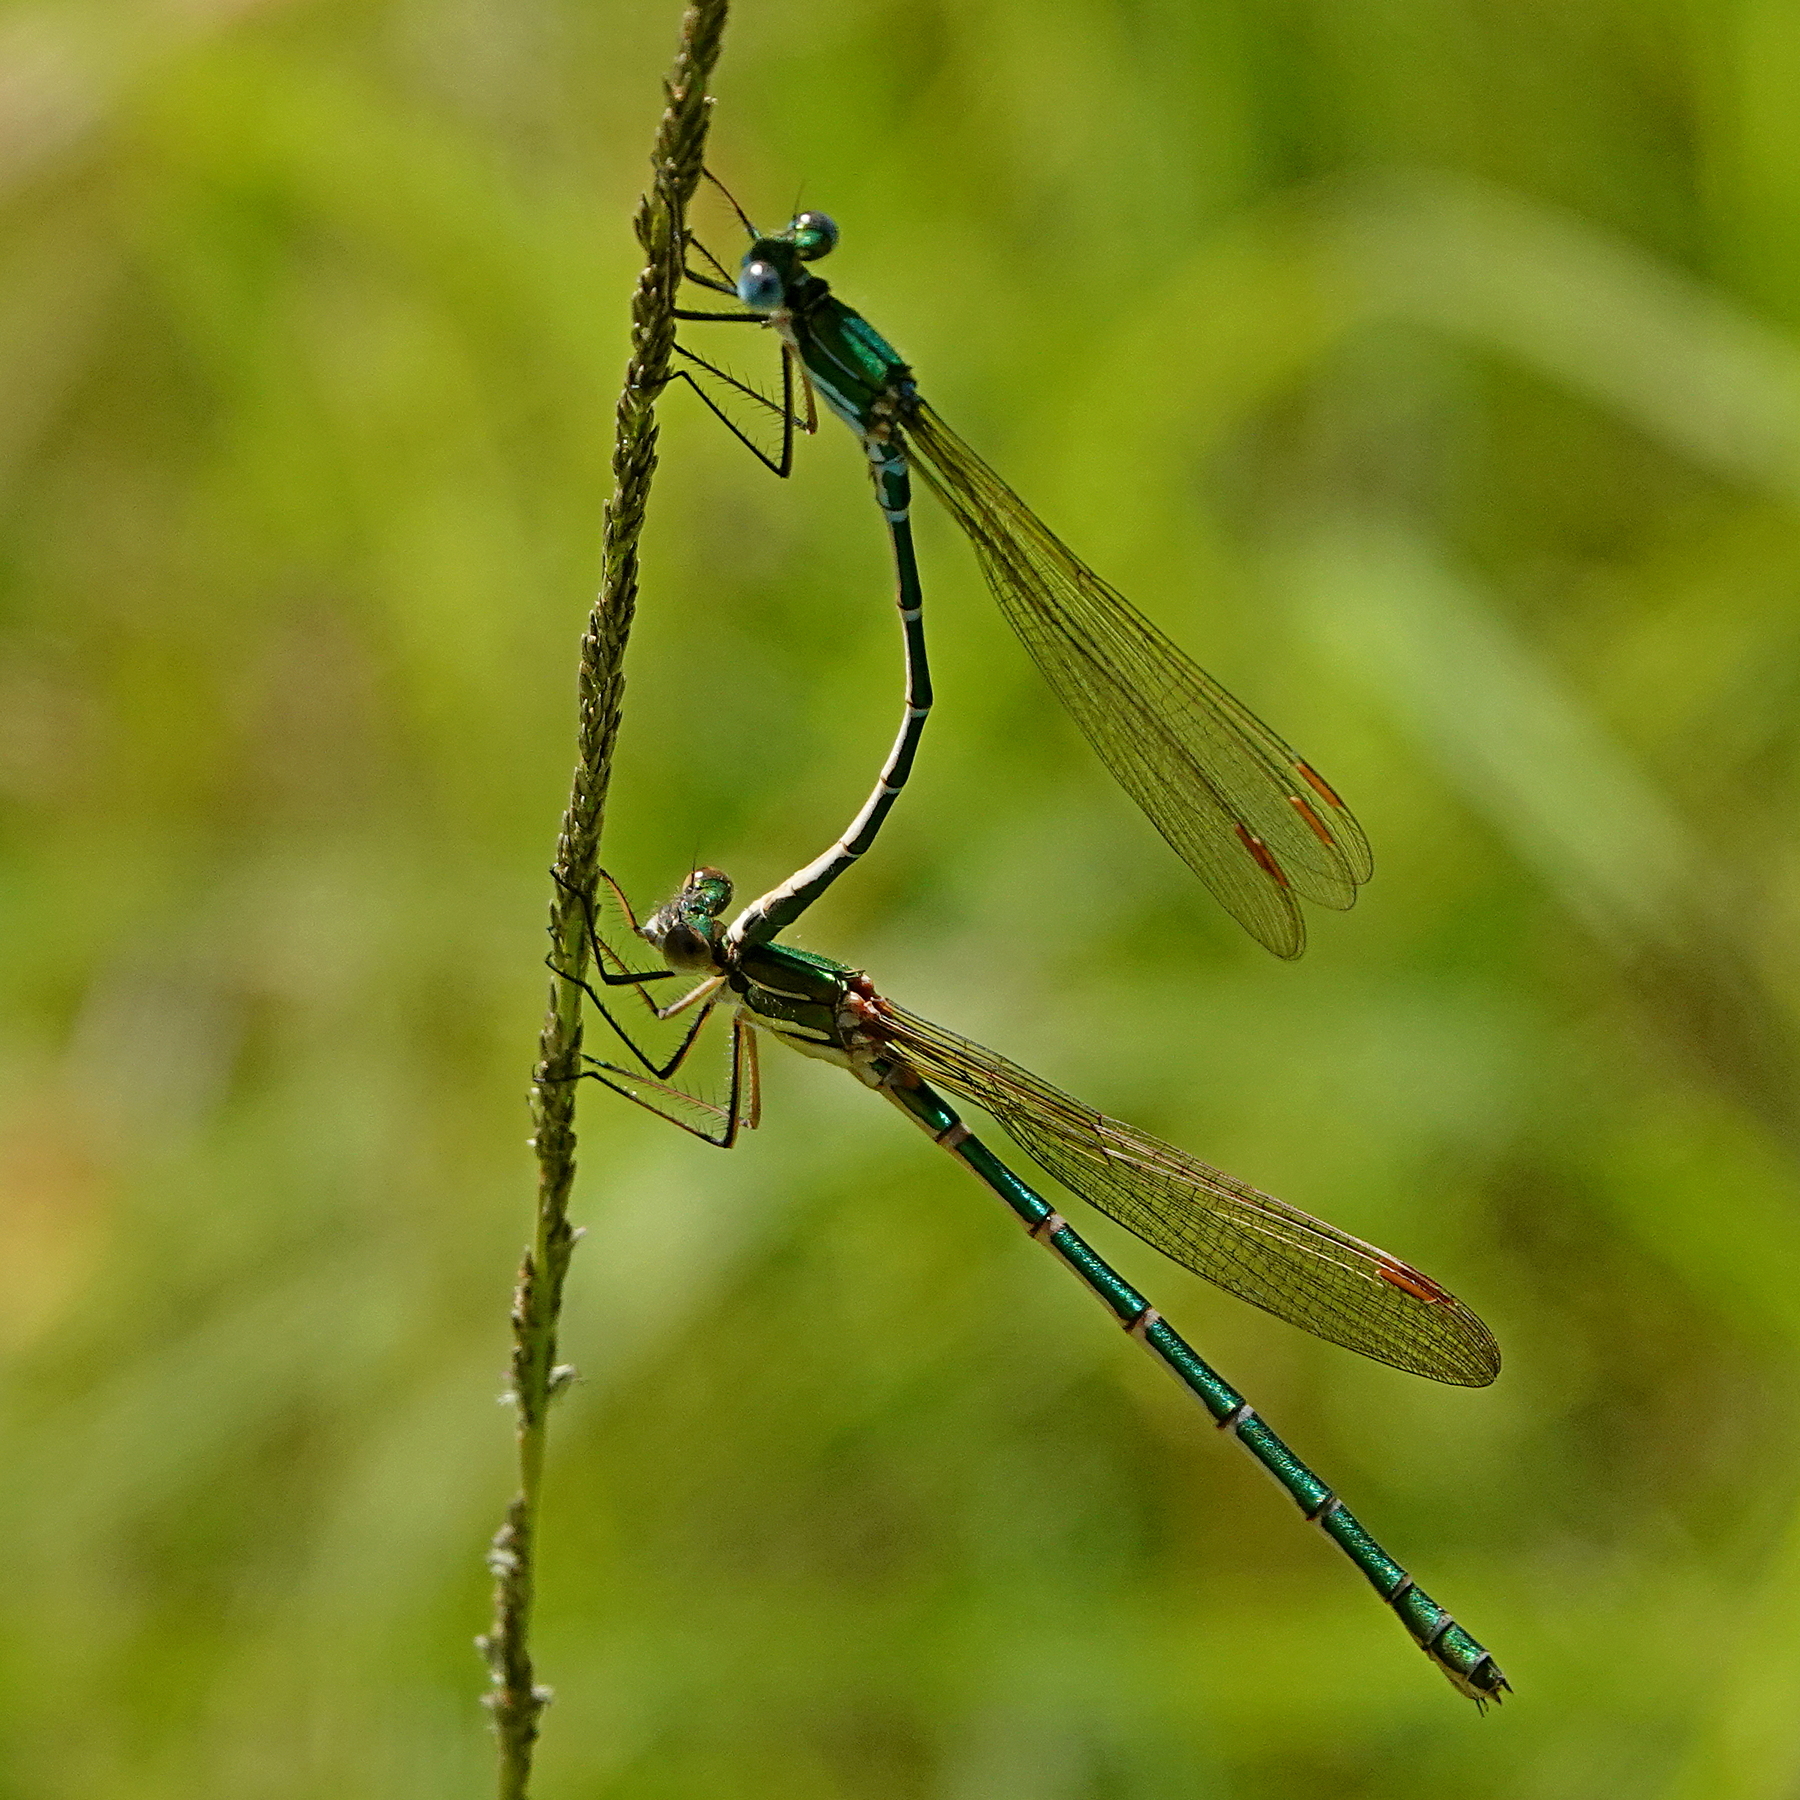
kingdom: Animalia
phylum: Arthropoda
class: Insecta
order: Odonata
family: Lestidae
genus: Austrolestes
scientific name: Austrolestes cingulatus
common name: Metallic ringtail
